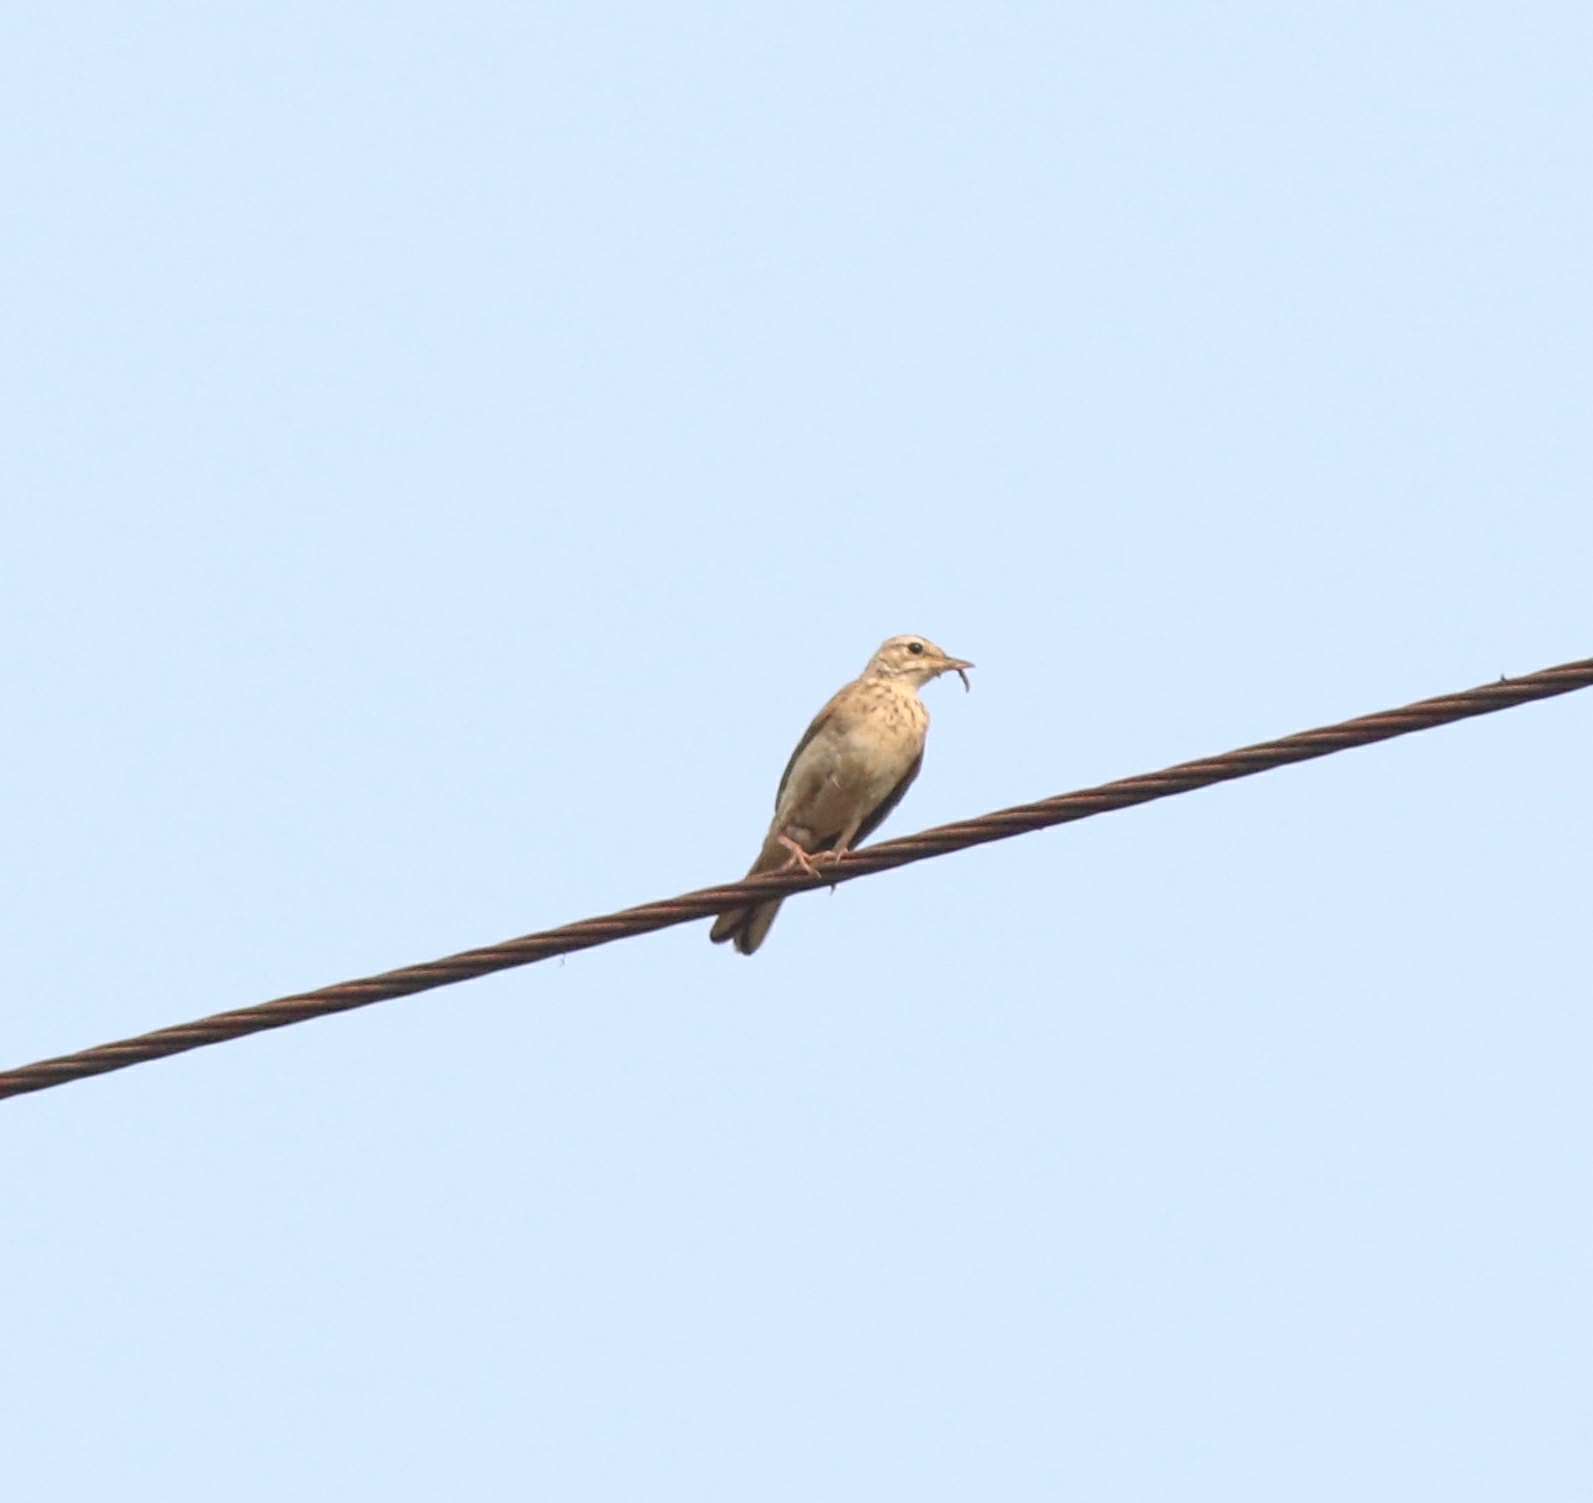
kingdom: Animalia
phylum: Chordata
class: Aves
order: Passeriformes
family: Motacillidae
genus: Anthus
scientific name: Anthus rufulus
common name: Paddyfield pipit
